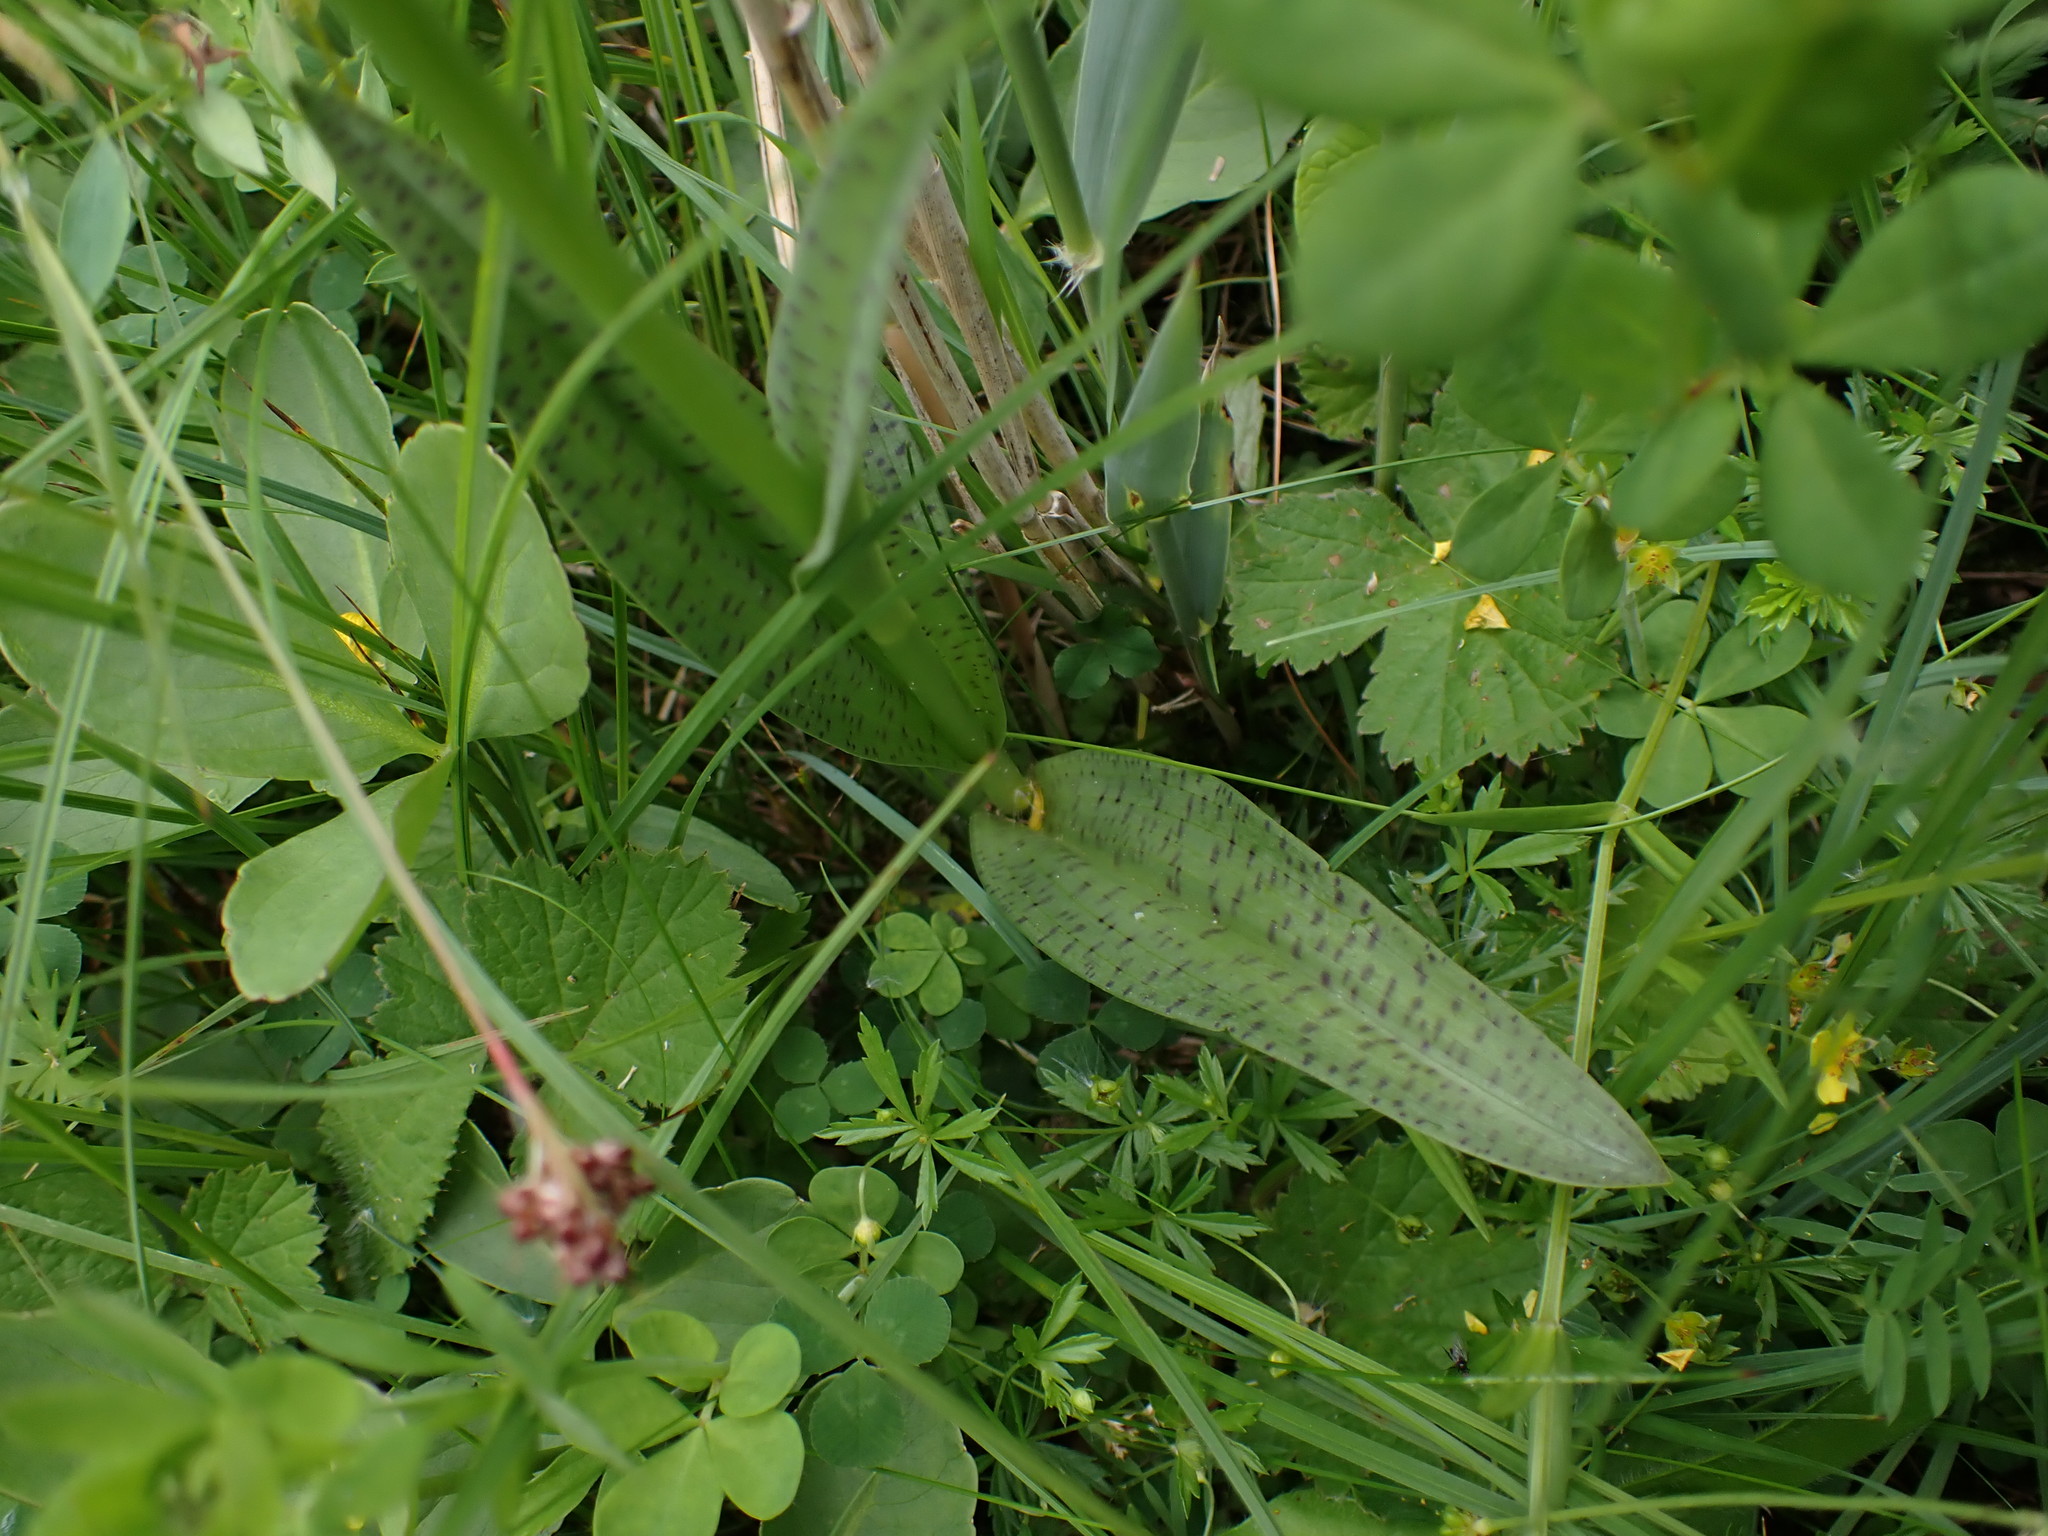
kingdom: Plantae
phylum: Tracheophyta
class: Liliopsida
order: Asparagales
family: Orchidaceae
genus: Dactylorhiza
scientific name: Dactylorhiza maculata
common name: Heath spotted-orchid
